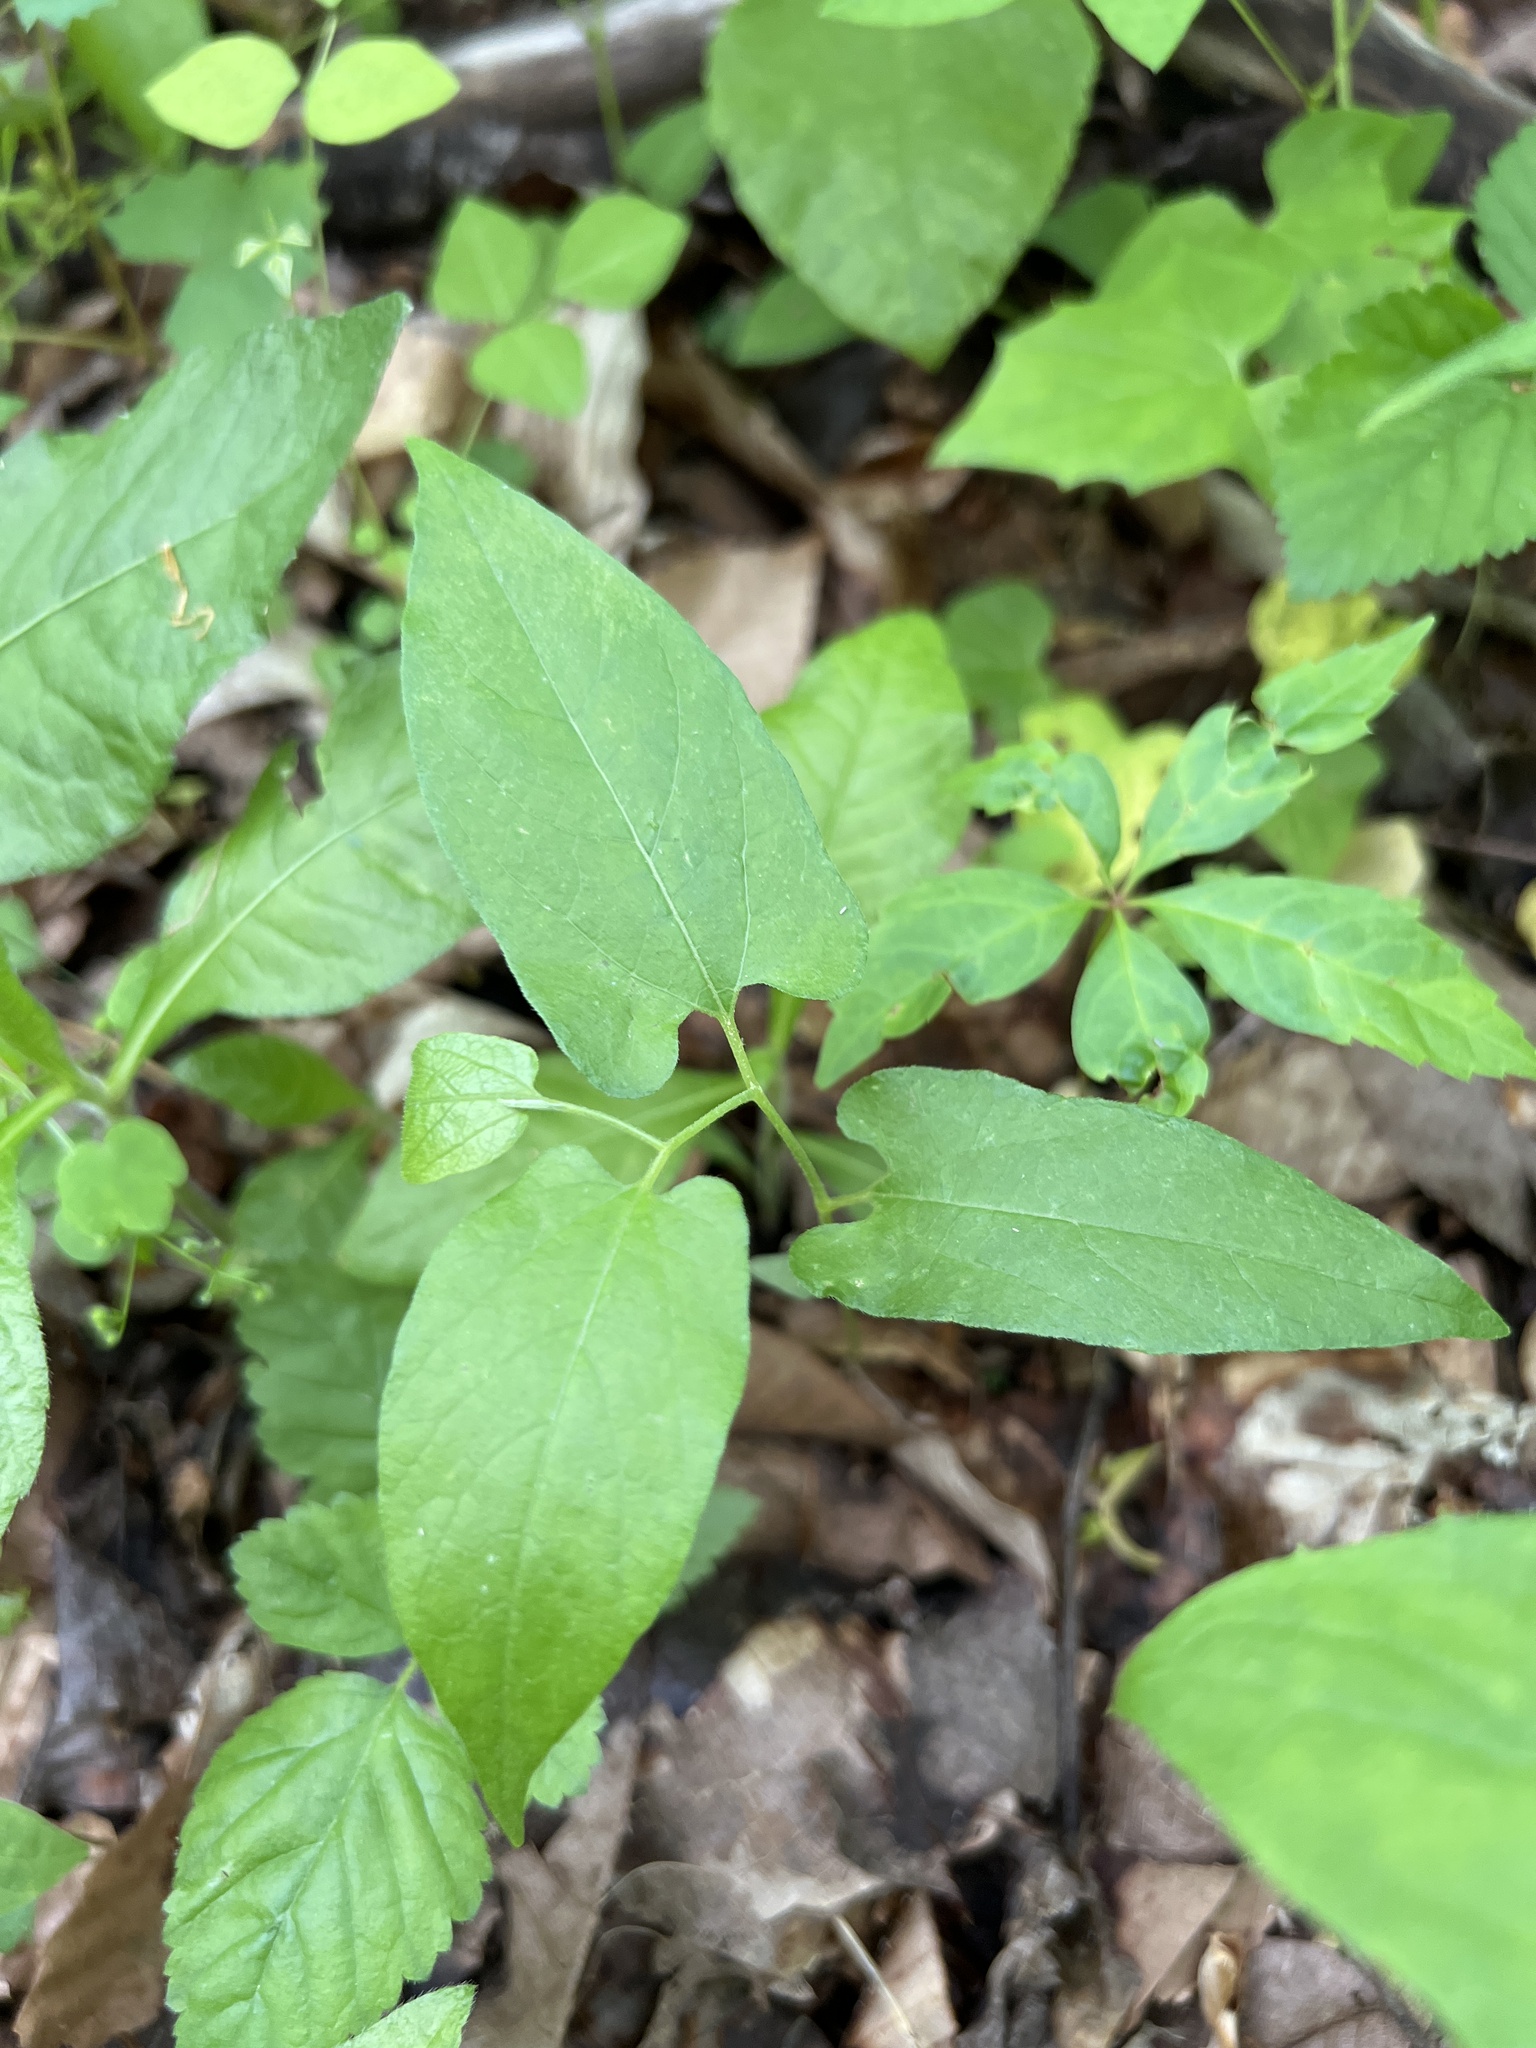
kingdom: Plantae
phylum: Tracheophyta
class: Magnoliopsida
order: Piperales
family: Aristolochiaceae
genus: Endodeca
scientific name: Endodeca serpentaria
